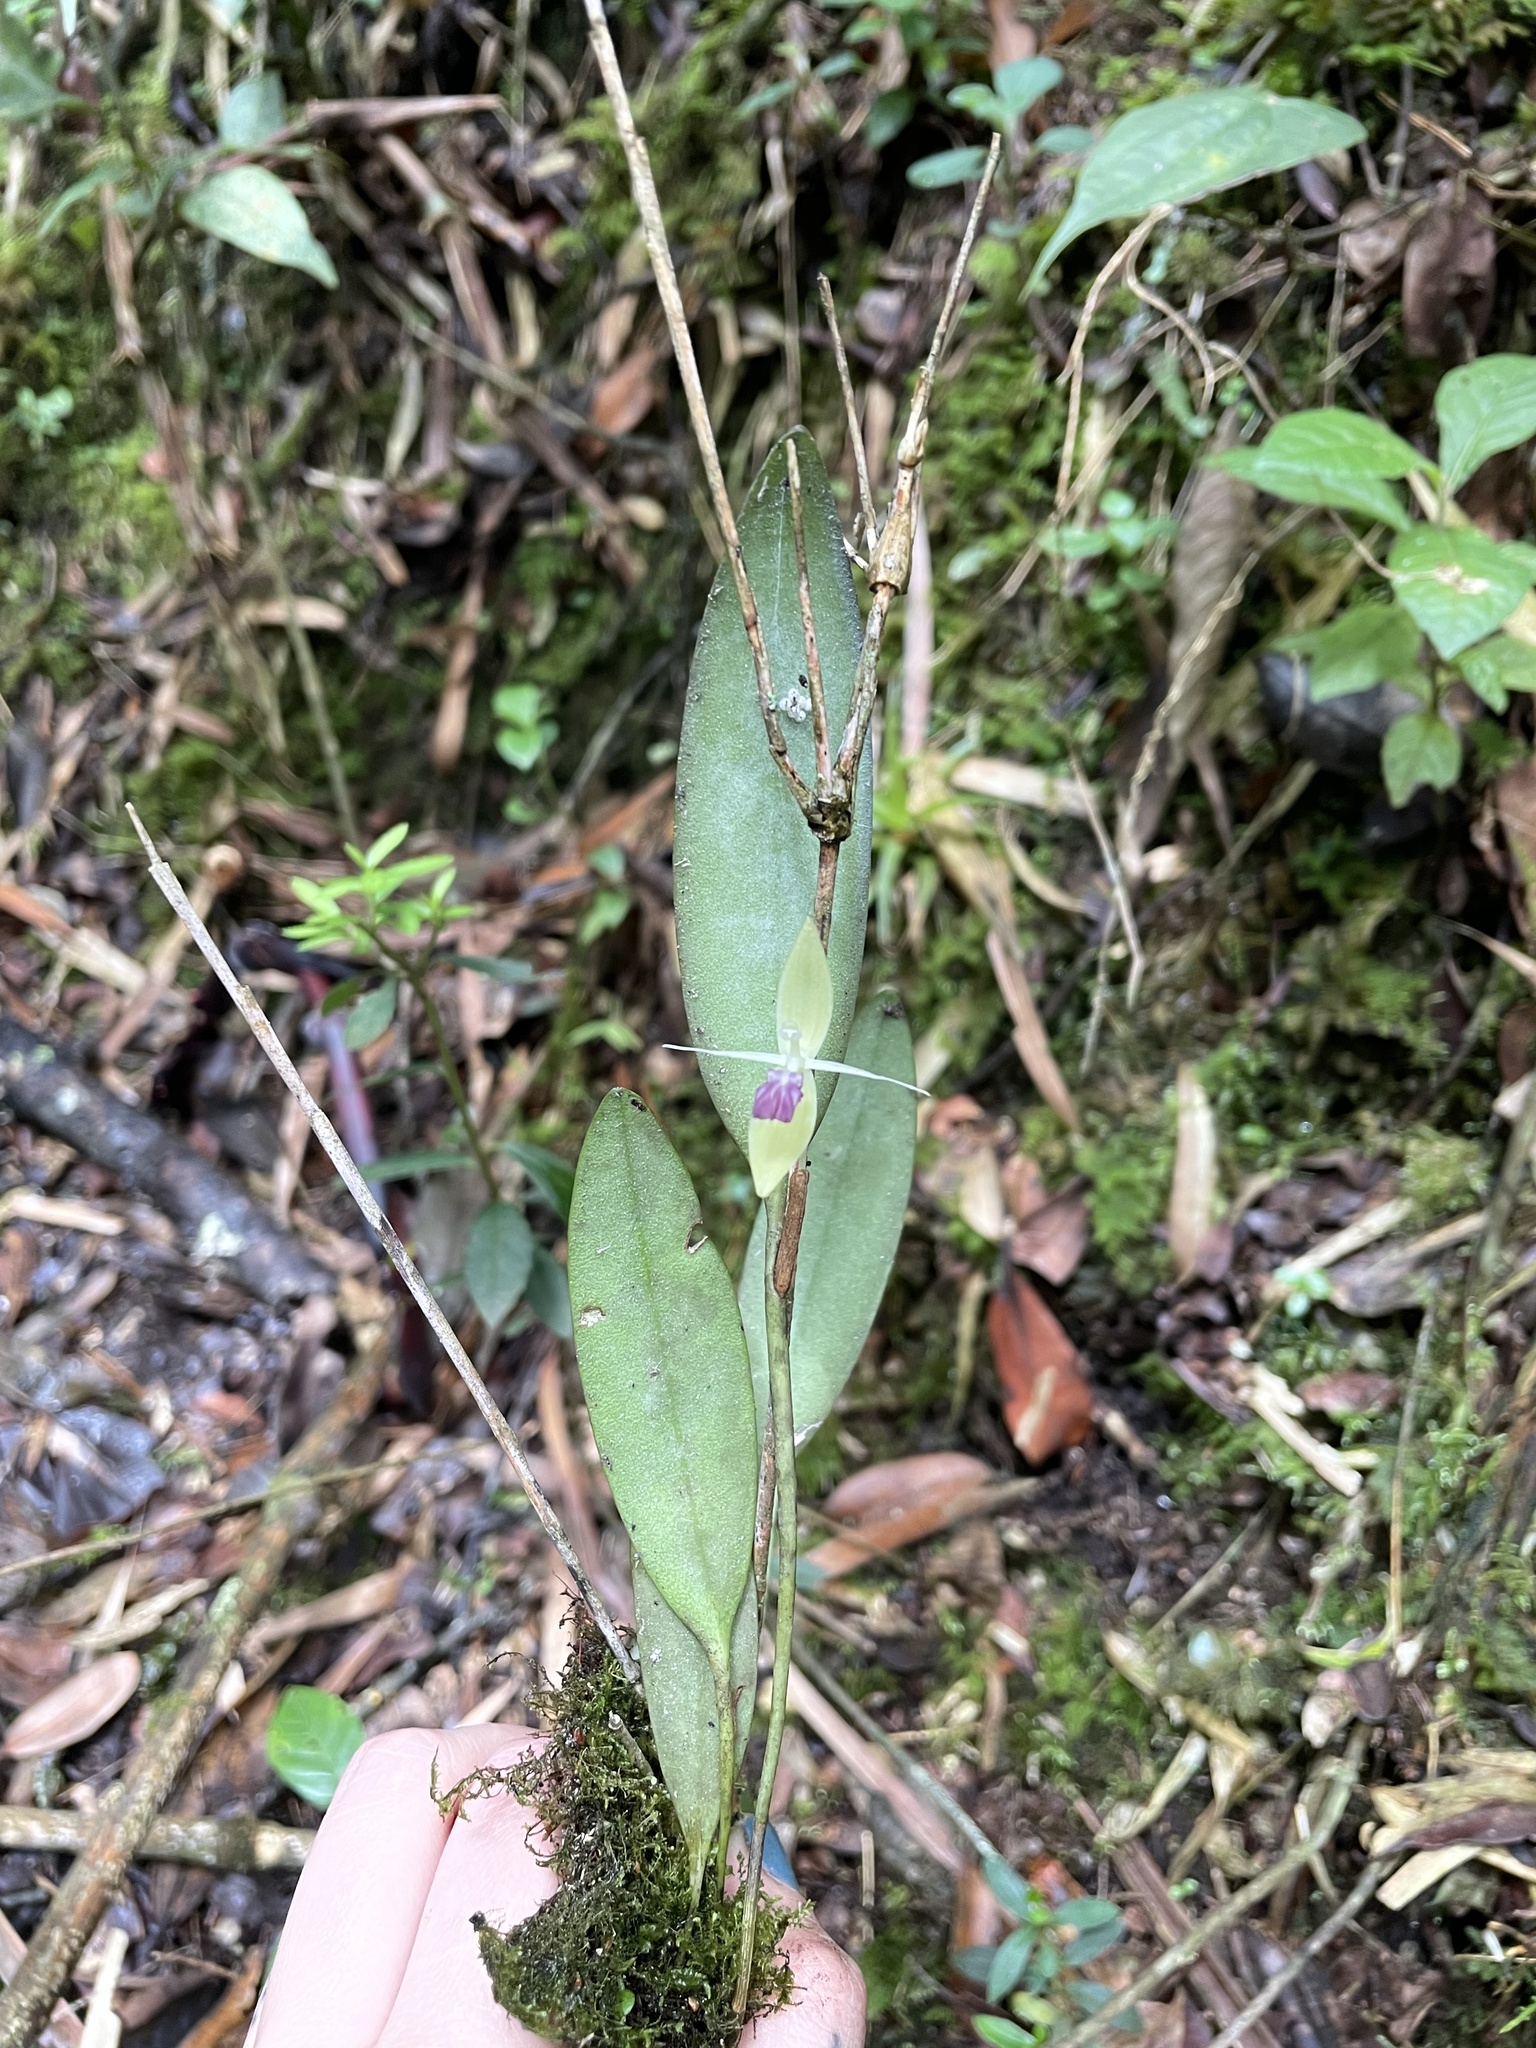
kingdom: Plantae
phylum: Tracheophyta
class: Liliopsida
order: Asparagales
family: Orchidaceae
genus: Pleurothallis
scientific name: Pleurothallis talpinaria
